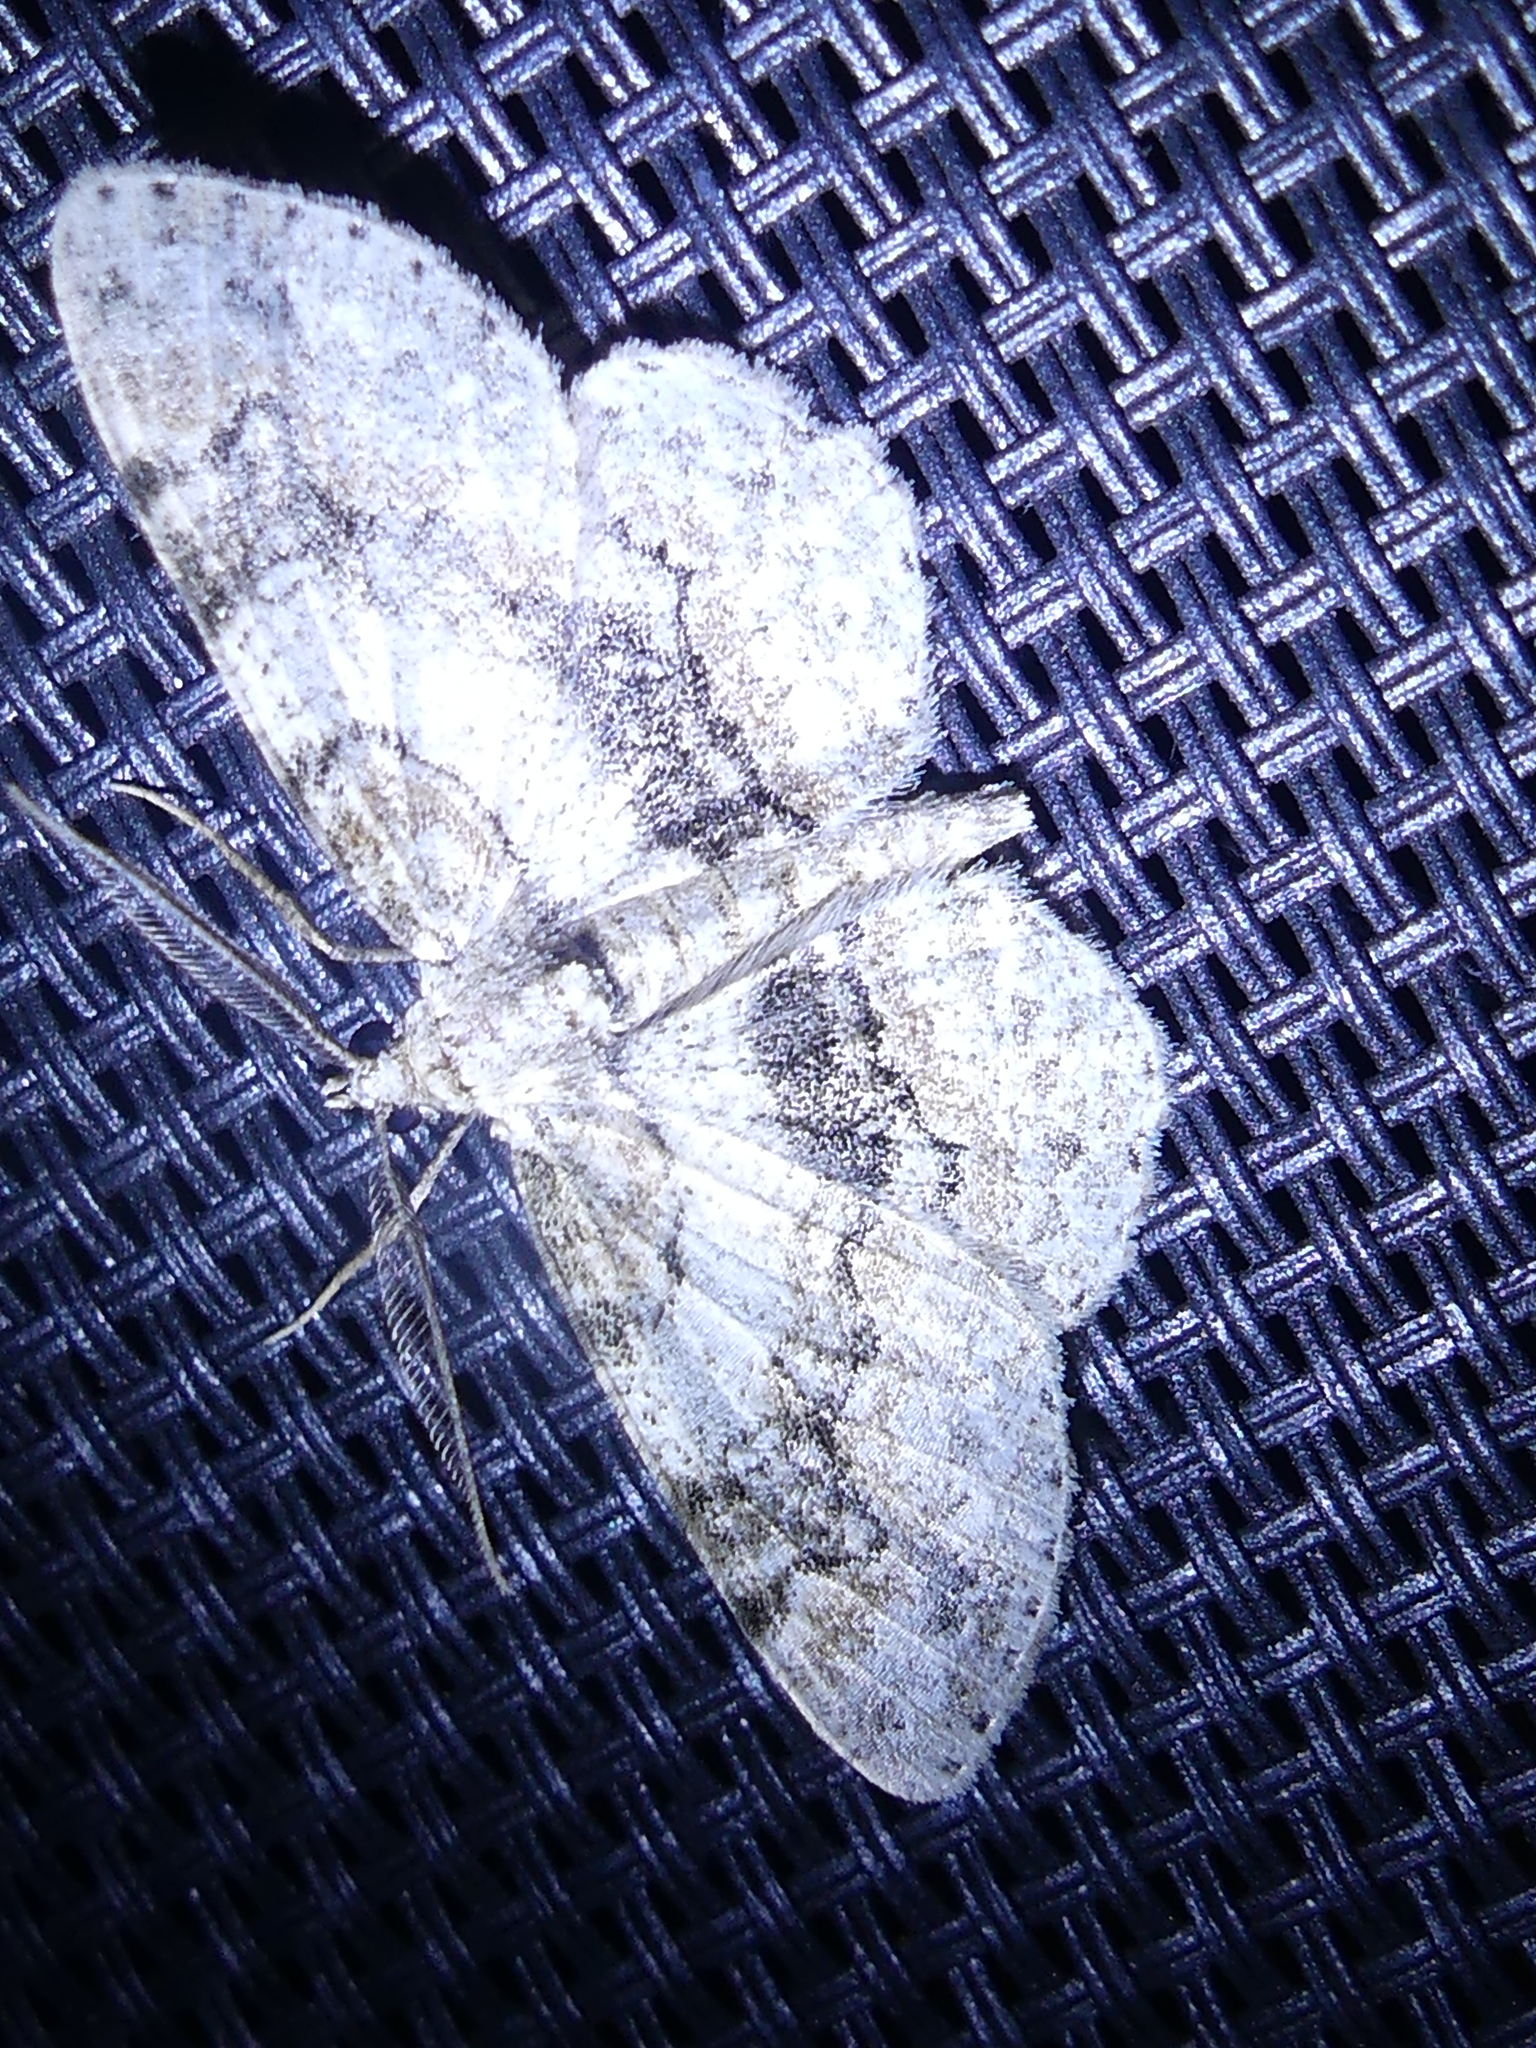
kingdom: Animalia
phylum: Arthropoda
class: Insecta
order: Lepidoptera
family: Geometridae
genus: Iridopsis
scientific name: Iridopsis ephyraria
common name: Pale-winged gray
